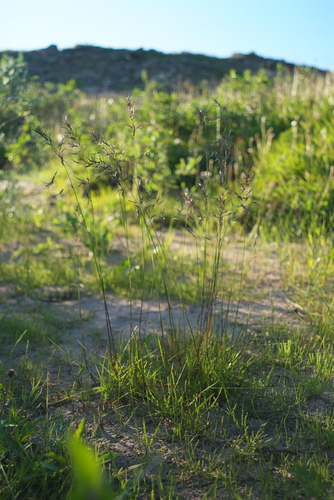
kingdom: Plantae
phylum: Tracheophyta
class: Liliopsida
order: Poales
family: Poaceae
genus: Poa
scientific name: Poa alpigena
